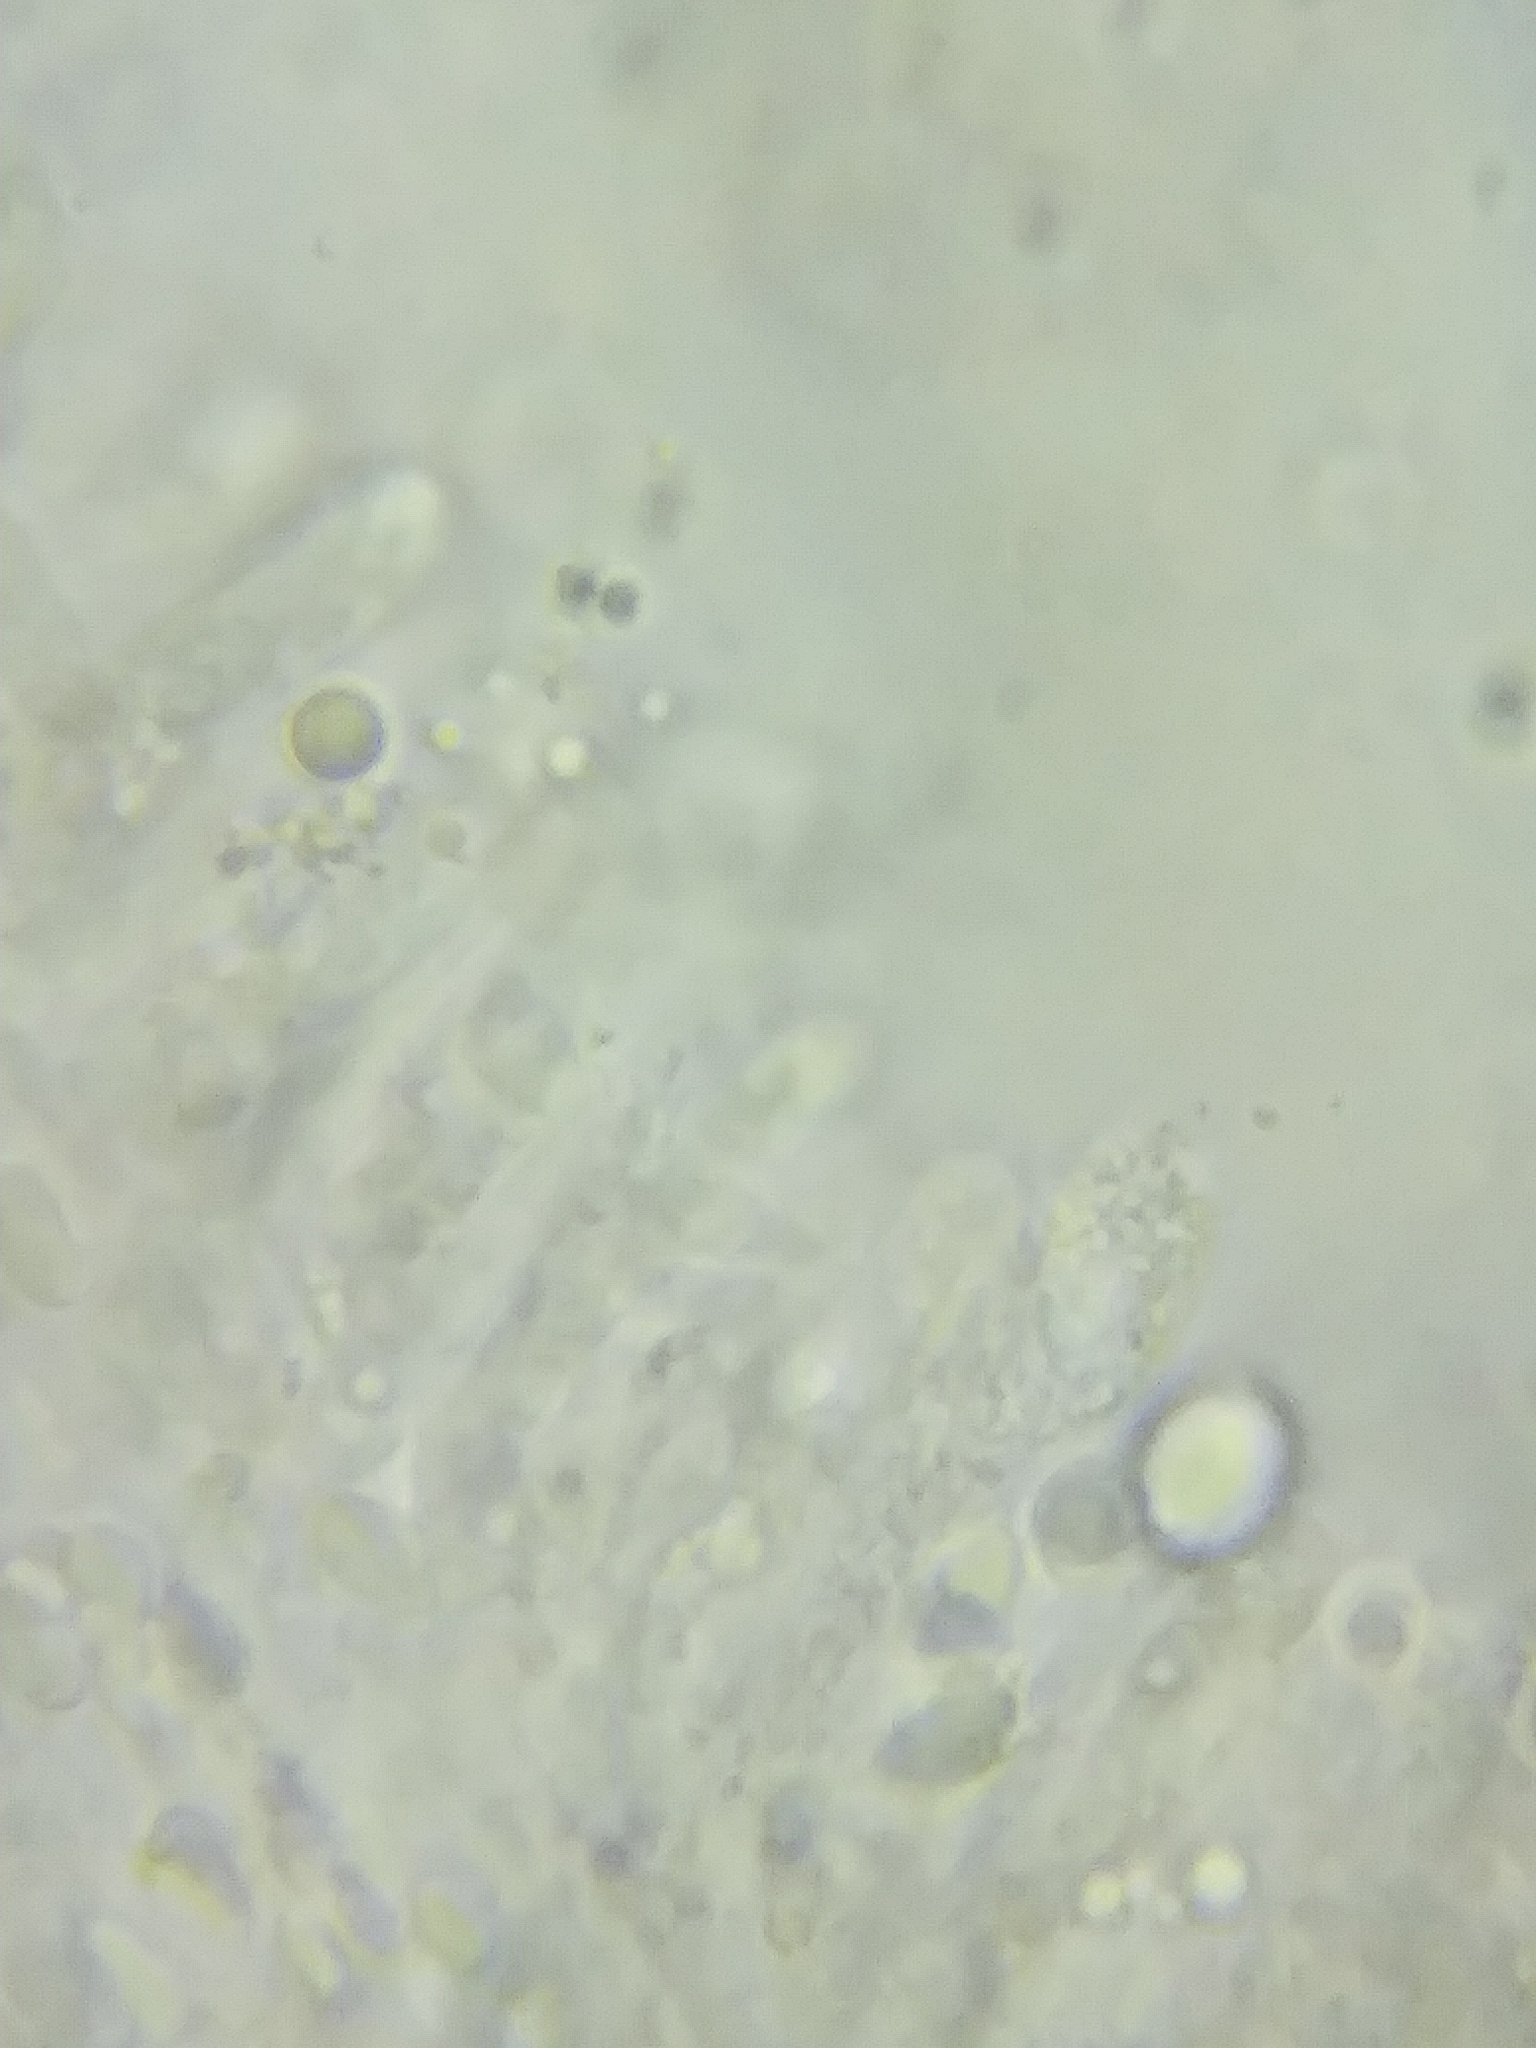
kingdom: Fungi
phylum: Basidiomycota
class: Agaricomycetes
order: Agaricales
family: Lyophyllaceae
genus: Hypsizygus
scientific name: Hypsizygus tessulatus
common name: Beech mushroom
